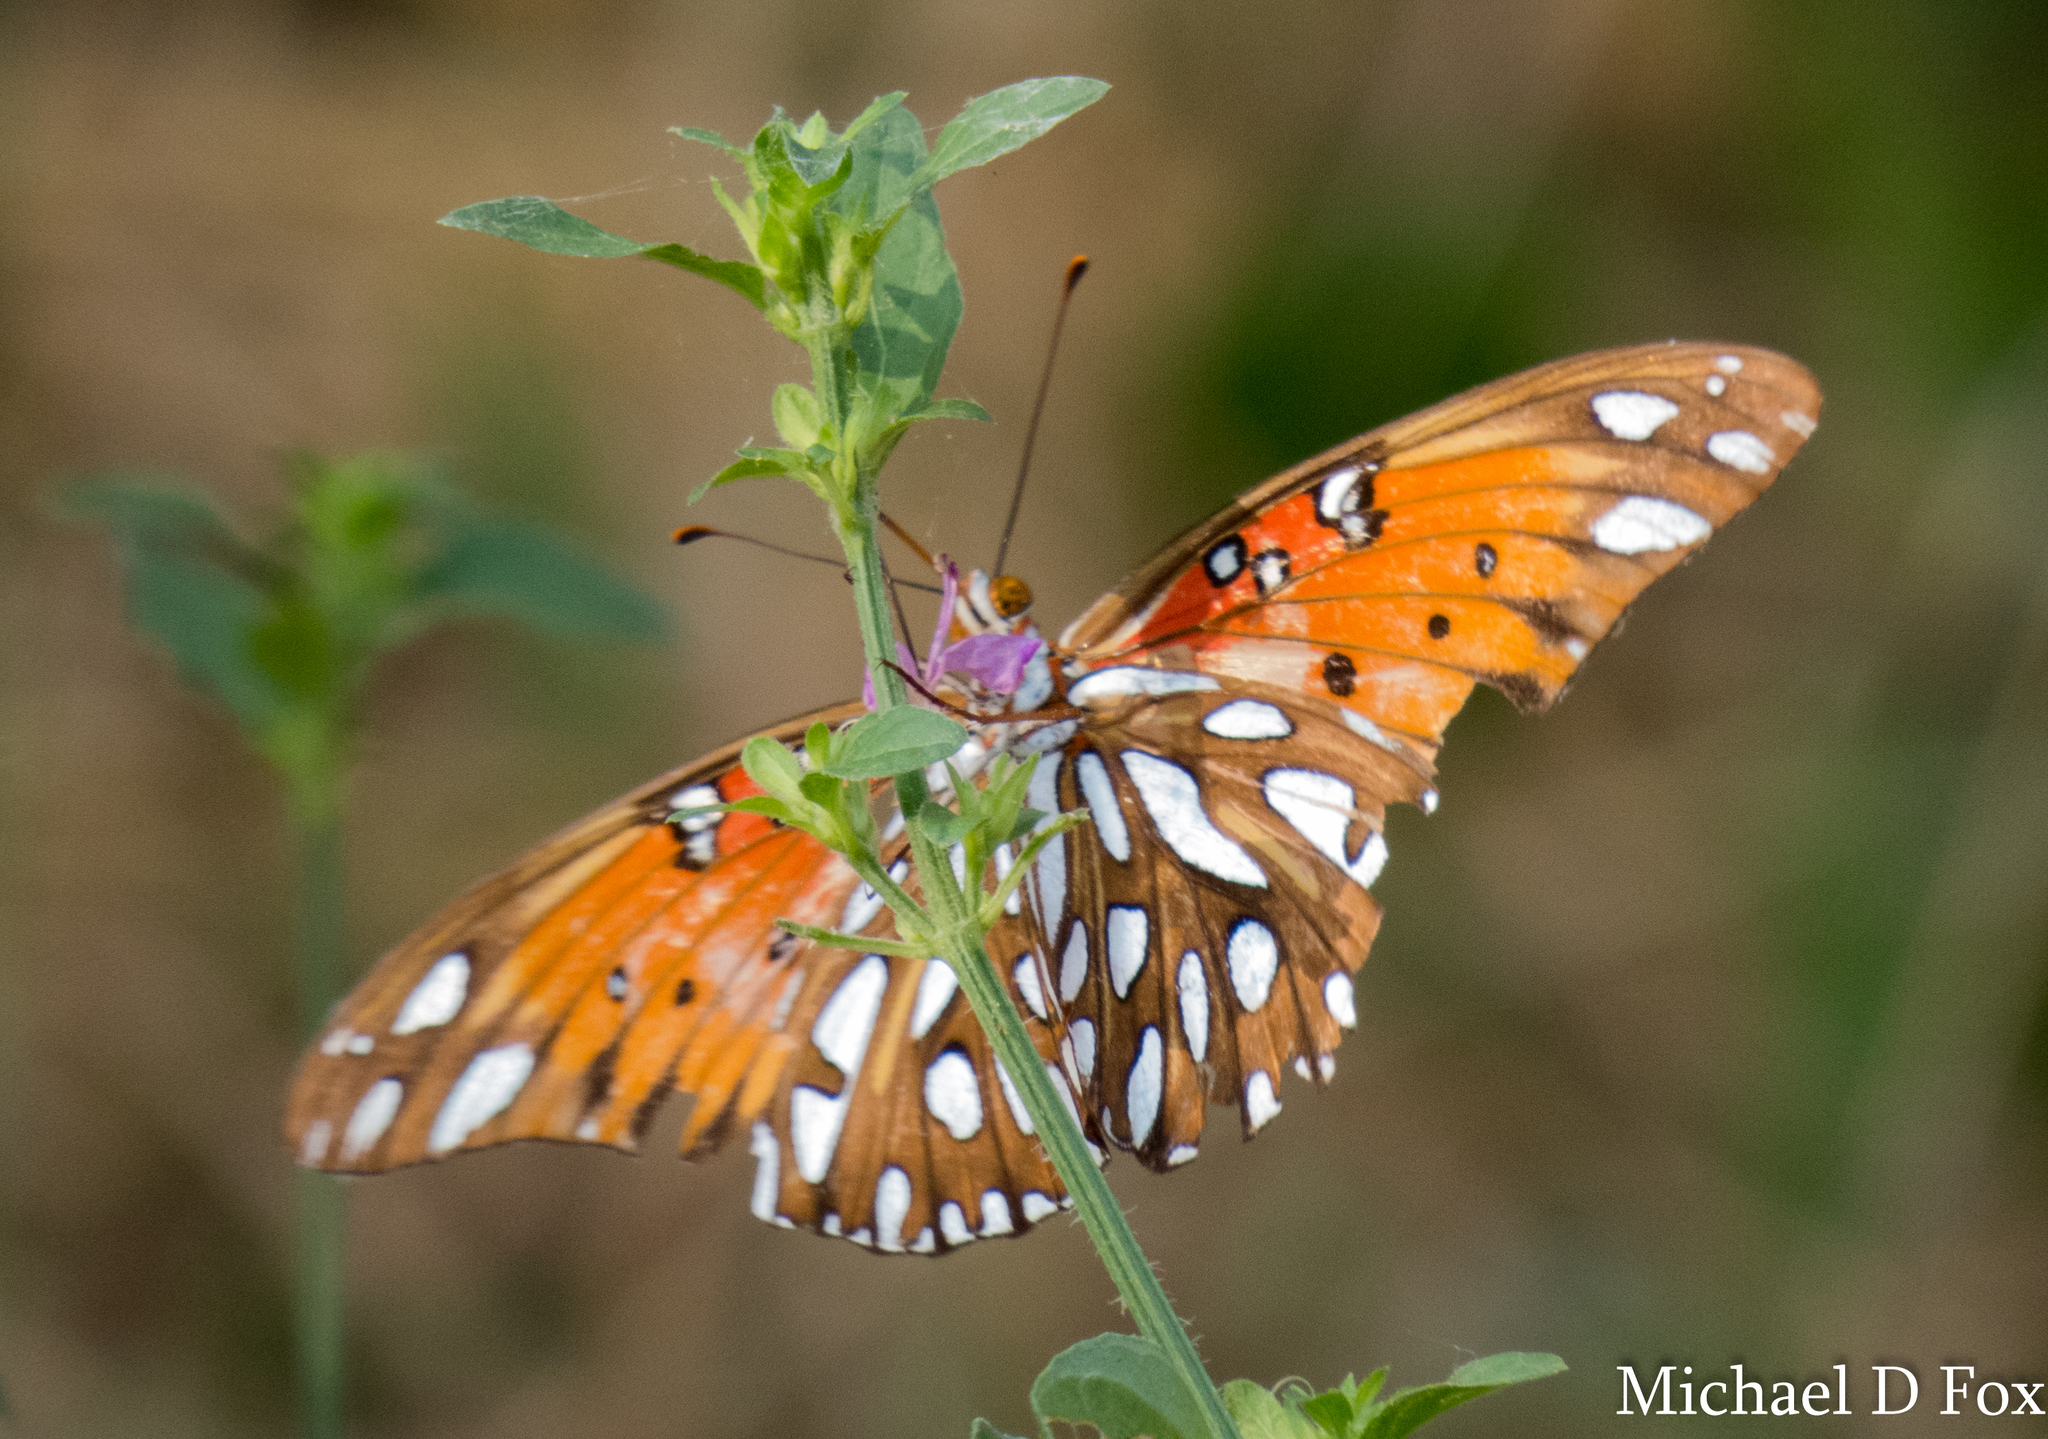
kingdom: Animalia
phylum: Arthropoda
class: Insecta
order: Lepidoptera
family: Nymphalidae
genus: Dione
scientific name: Dione vanillae
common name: Gulf fritillary
